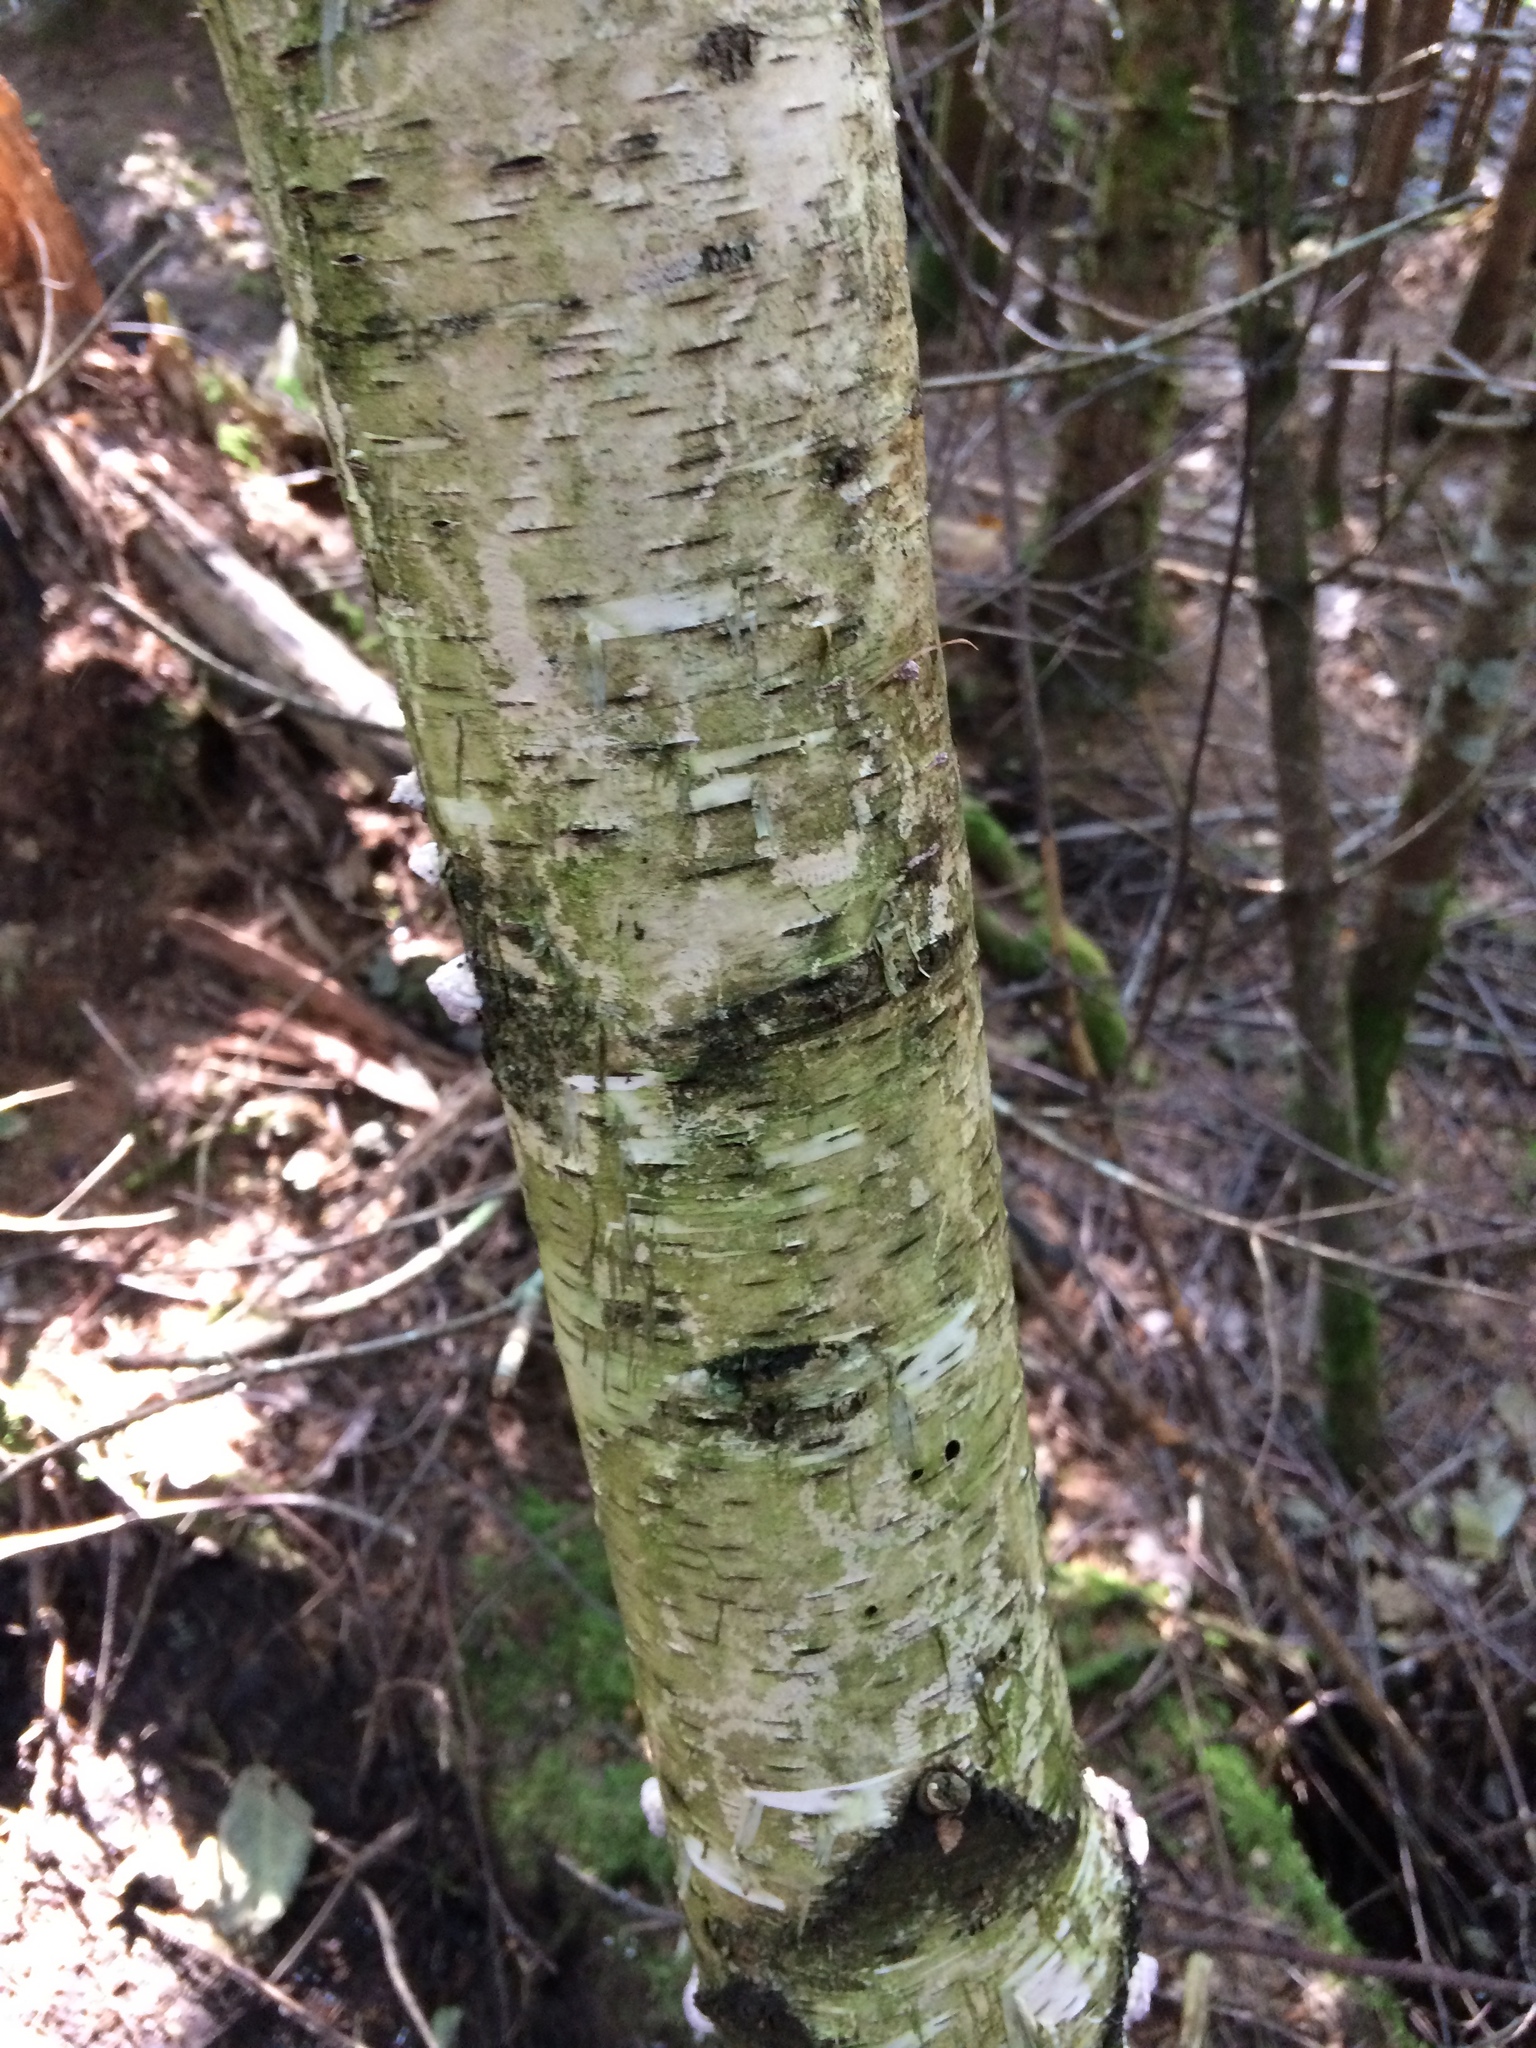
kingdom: Plantae
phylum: Tracheophyta
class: Magnoliopsida
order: Fagales
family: Betulaceae
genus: Betula
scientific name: Betula papyrifera
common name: Paper birch
